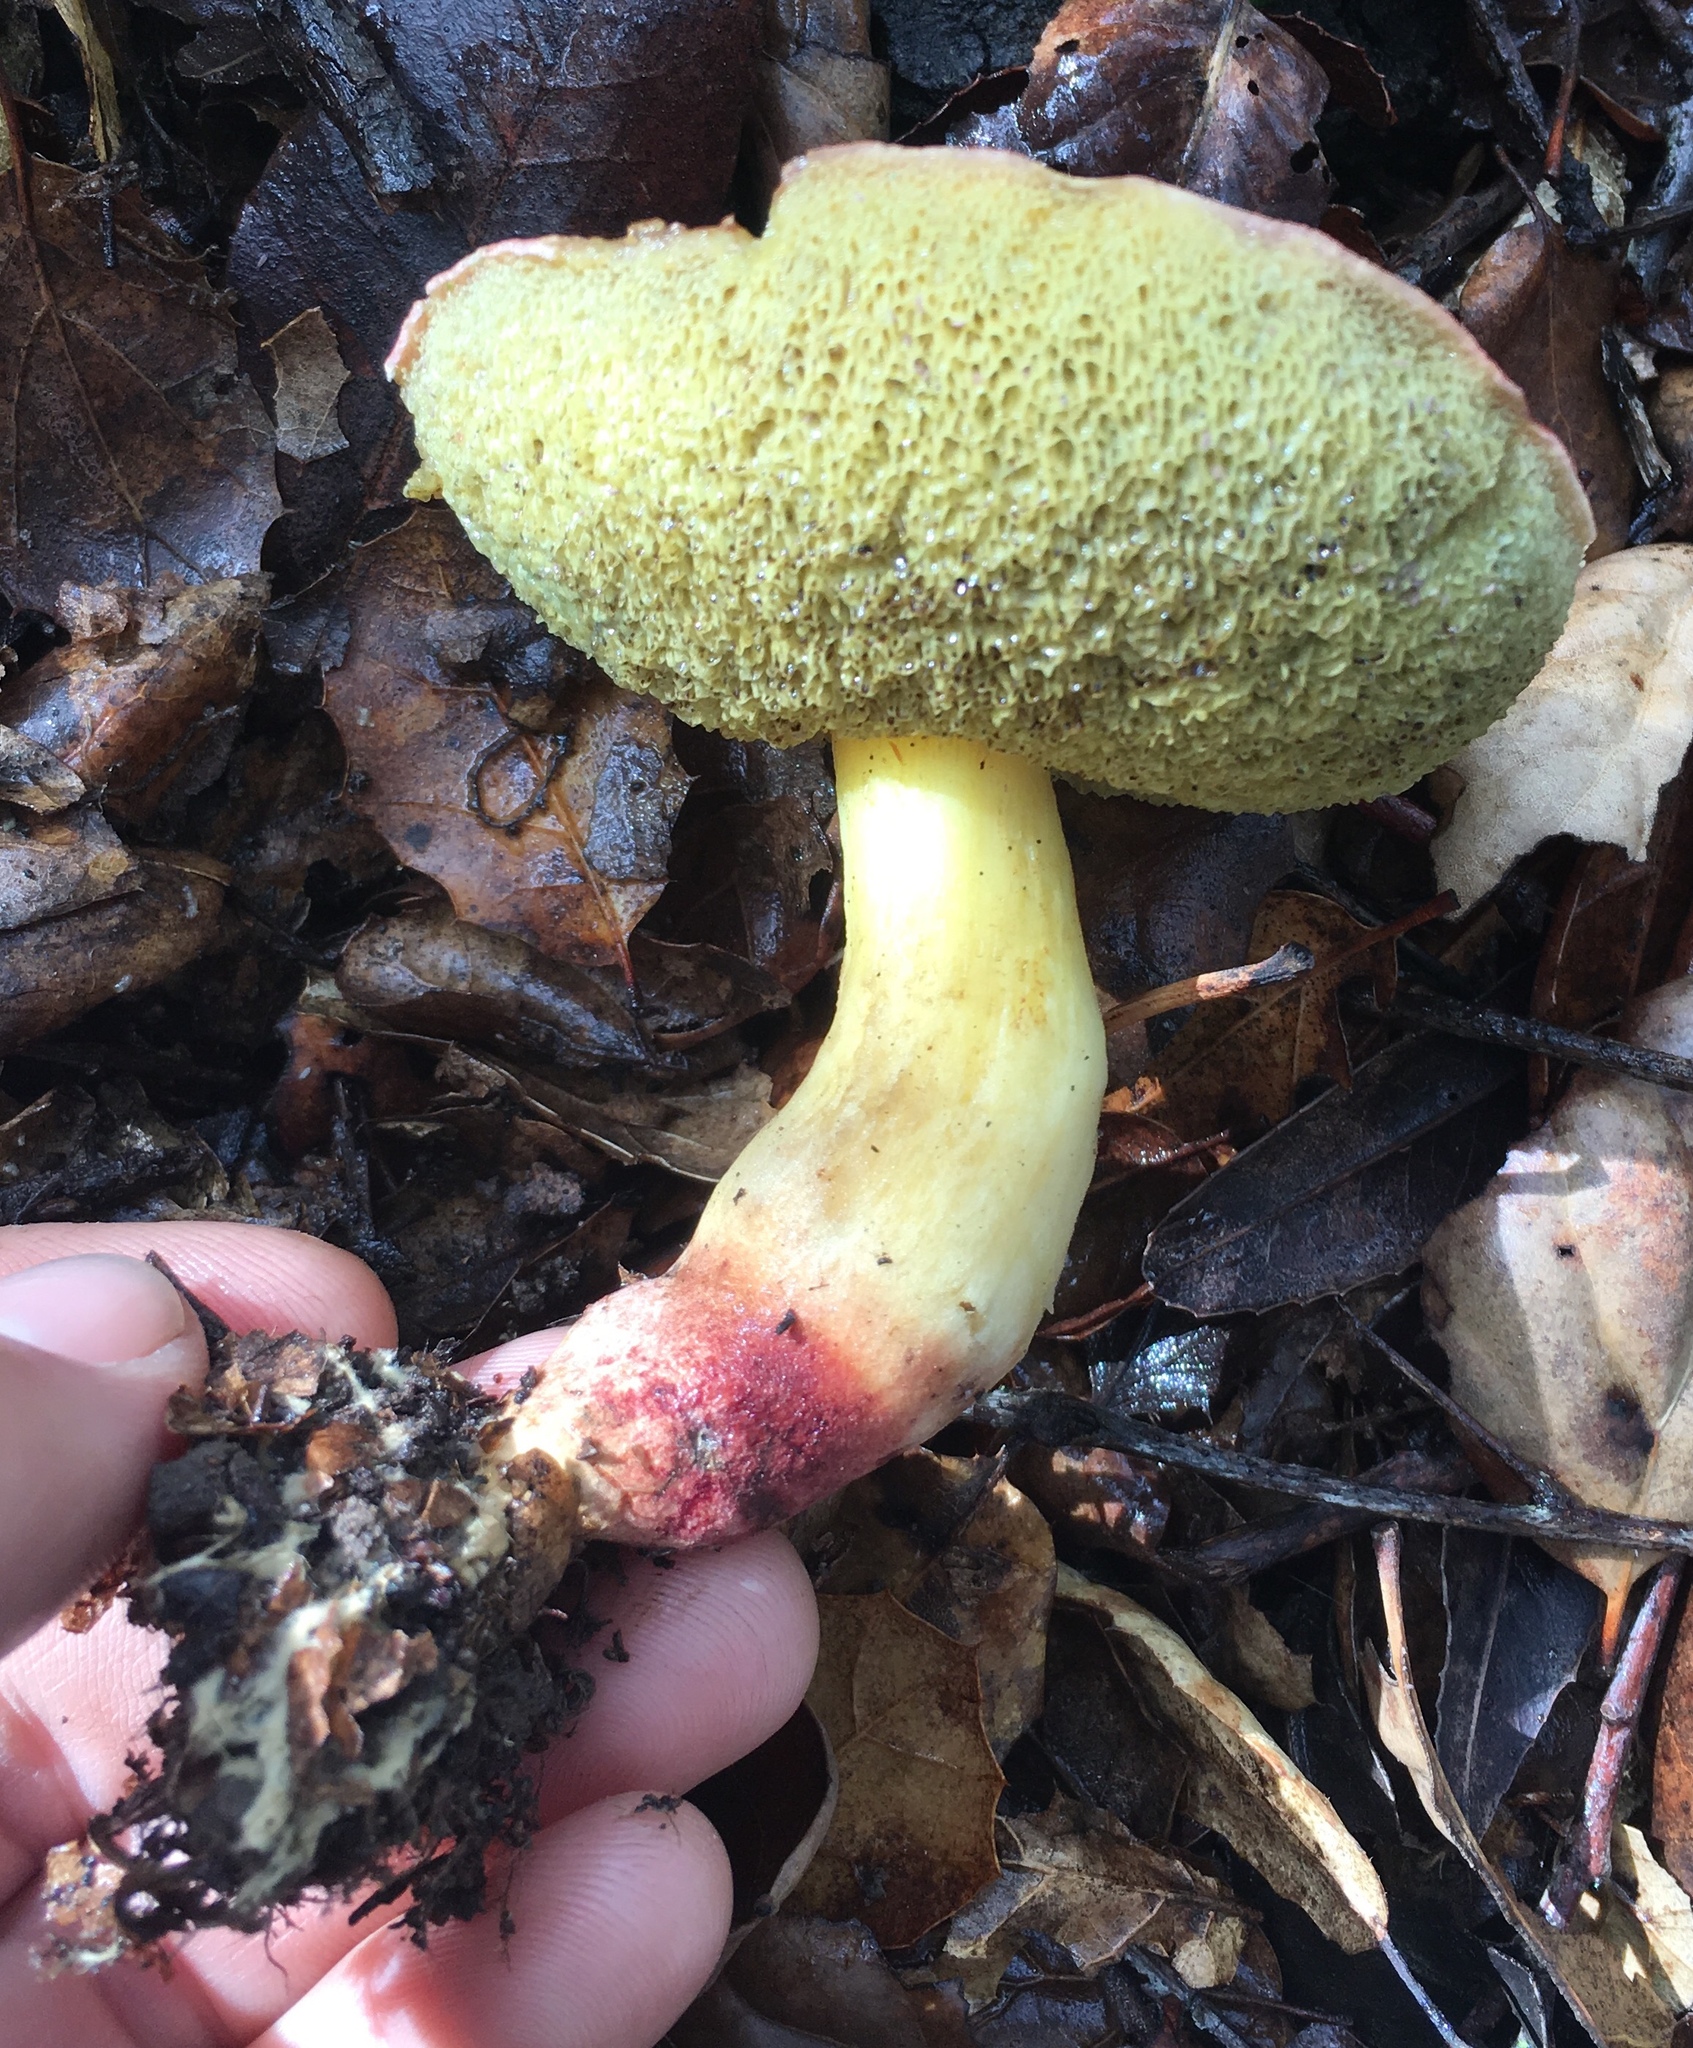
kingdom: Fungi
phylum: Basidiomycota
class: Agaricomycetes
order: Boletales
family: Boletaceae
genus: Xerocomellus
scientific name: Xerocomellus dryophilus
